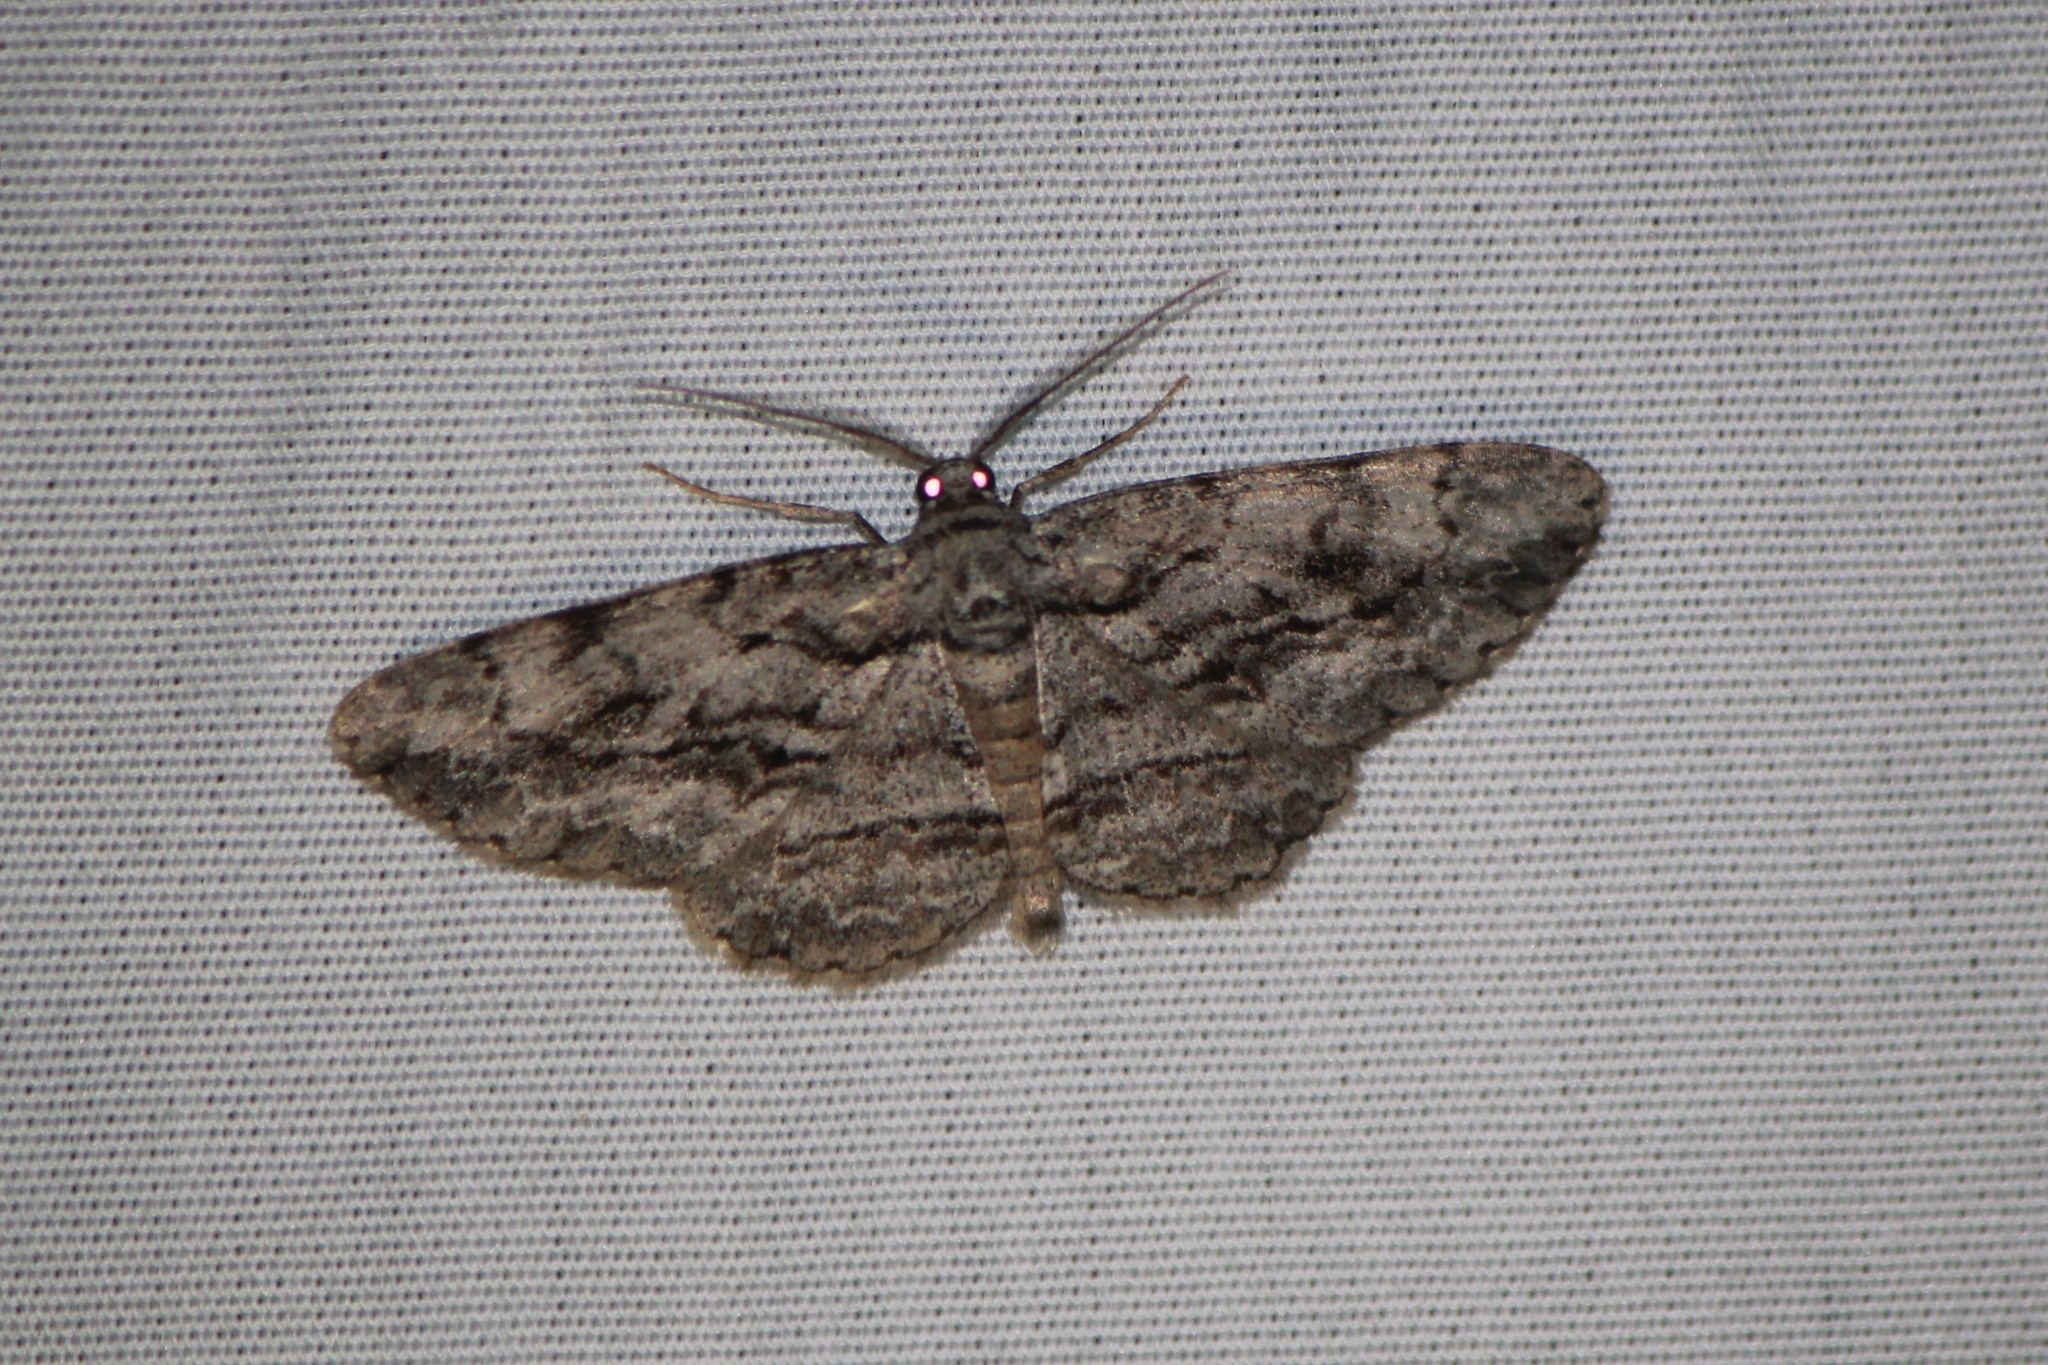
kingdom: Animalia
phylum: Arthropoda
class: Insecta
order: Lepidoptera
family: Geometridae
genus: Anavitrinella
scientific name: Anavitrinella pampinaria
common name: Common gray
